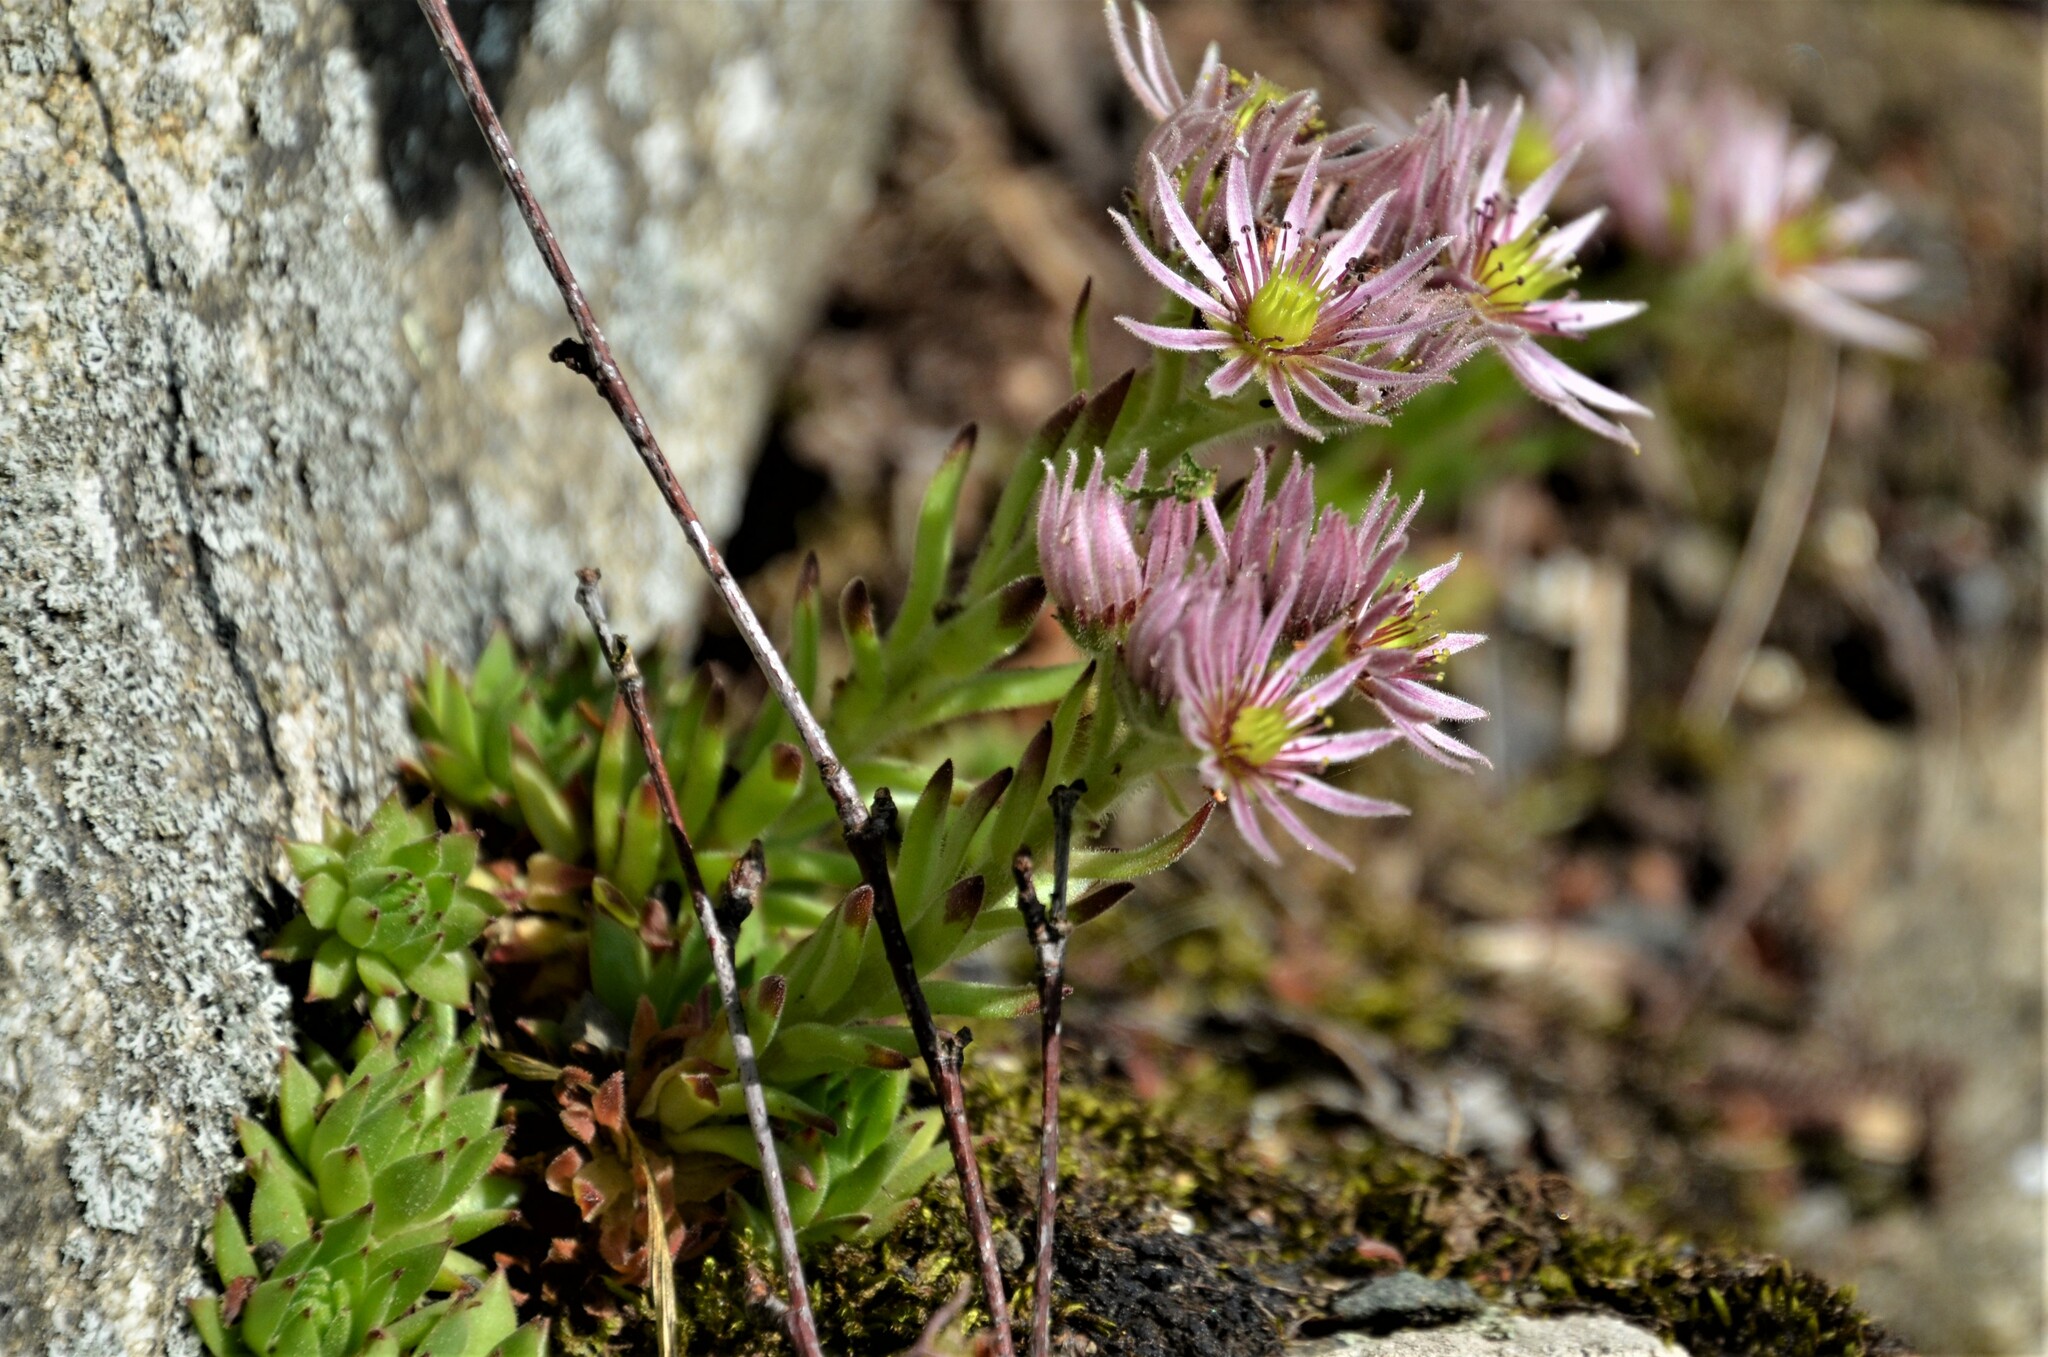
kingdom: Plantae
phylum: Tracheophyta
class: Magnoliopsida
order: Saxifragales
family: Crassulaceae
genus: Sempervivum
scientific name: Sempervivum montanum
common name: Mountain house-leek
